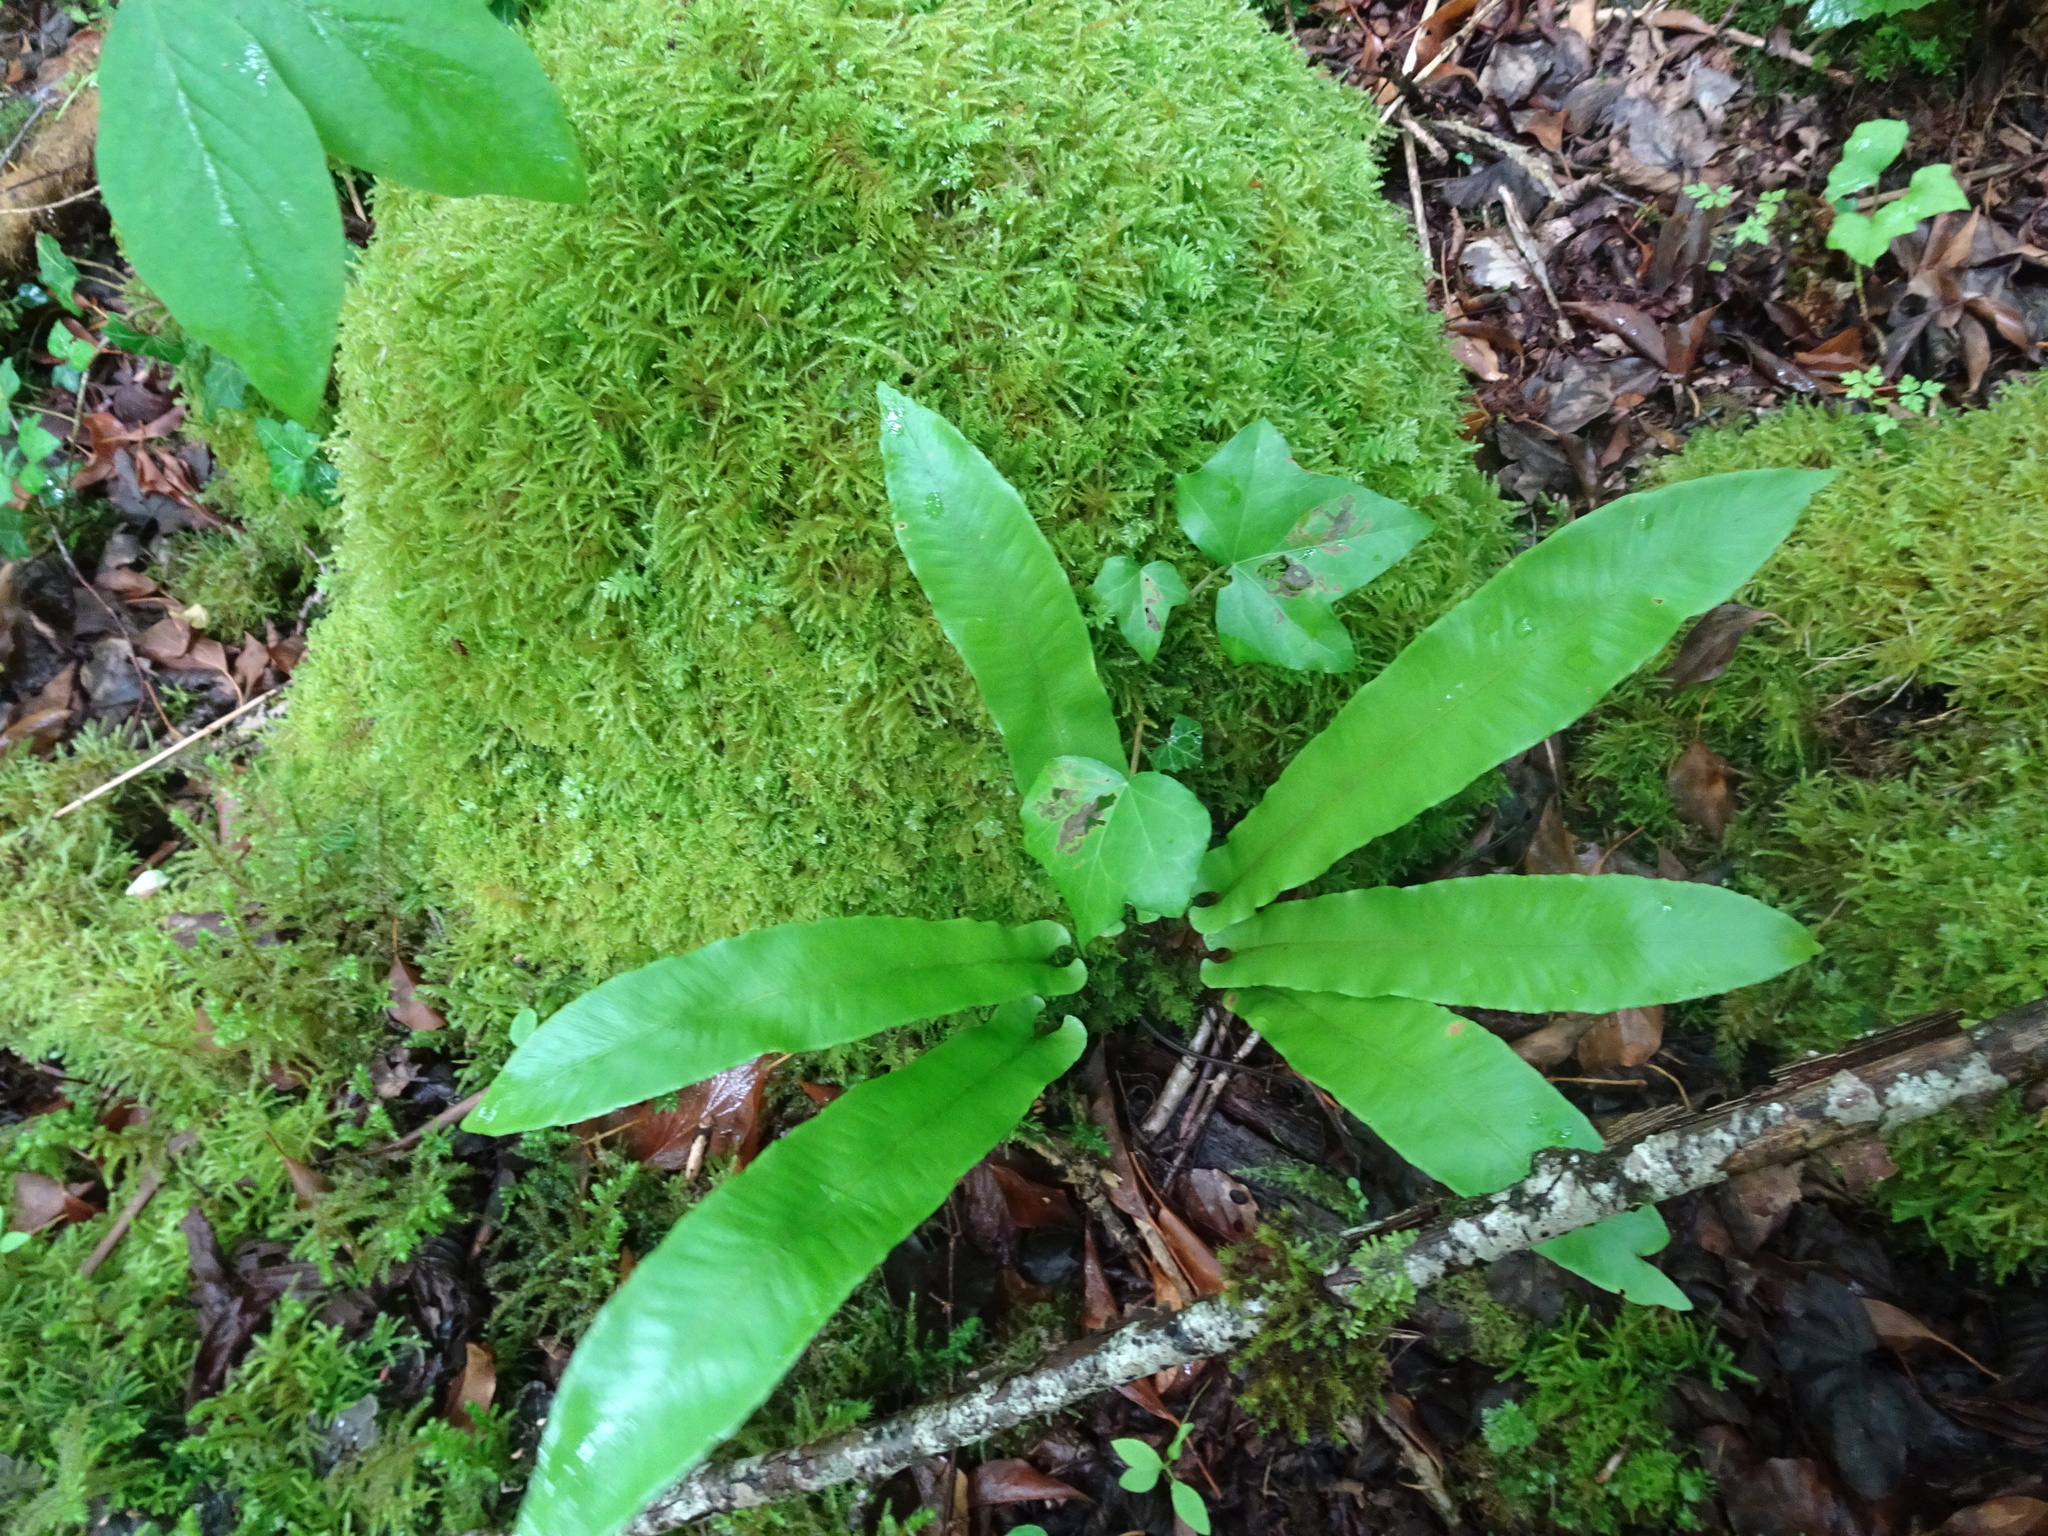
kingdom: Plantae
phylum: Tracheophyta
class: Polypodiopsida
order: Polypodiales
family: Aspleniaceae
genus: Asplenium
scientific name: Asplenium scolopendrium
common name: Hart's-tongue fern
